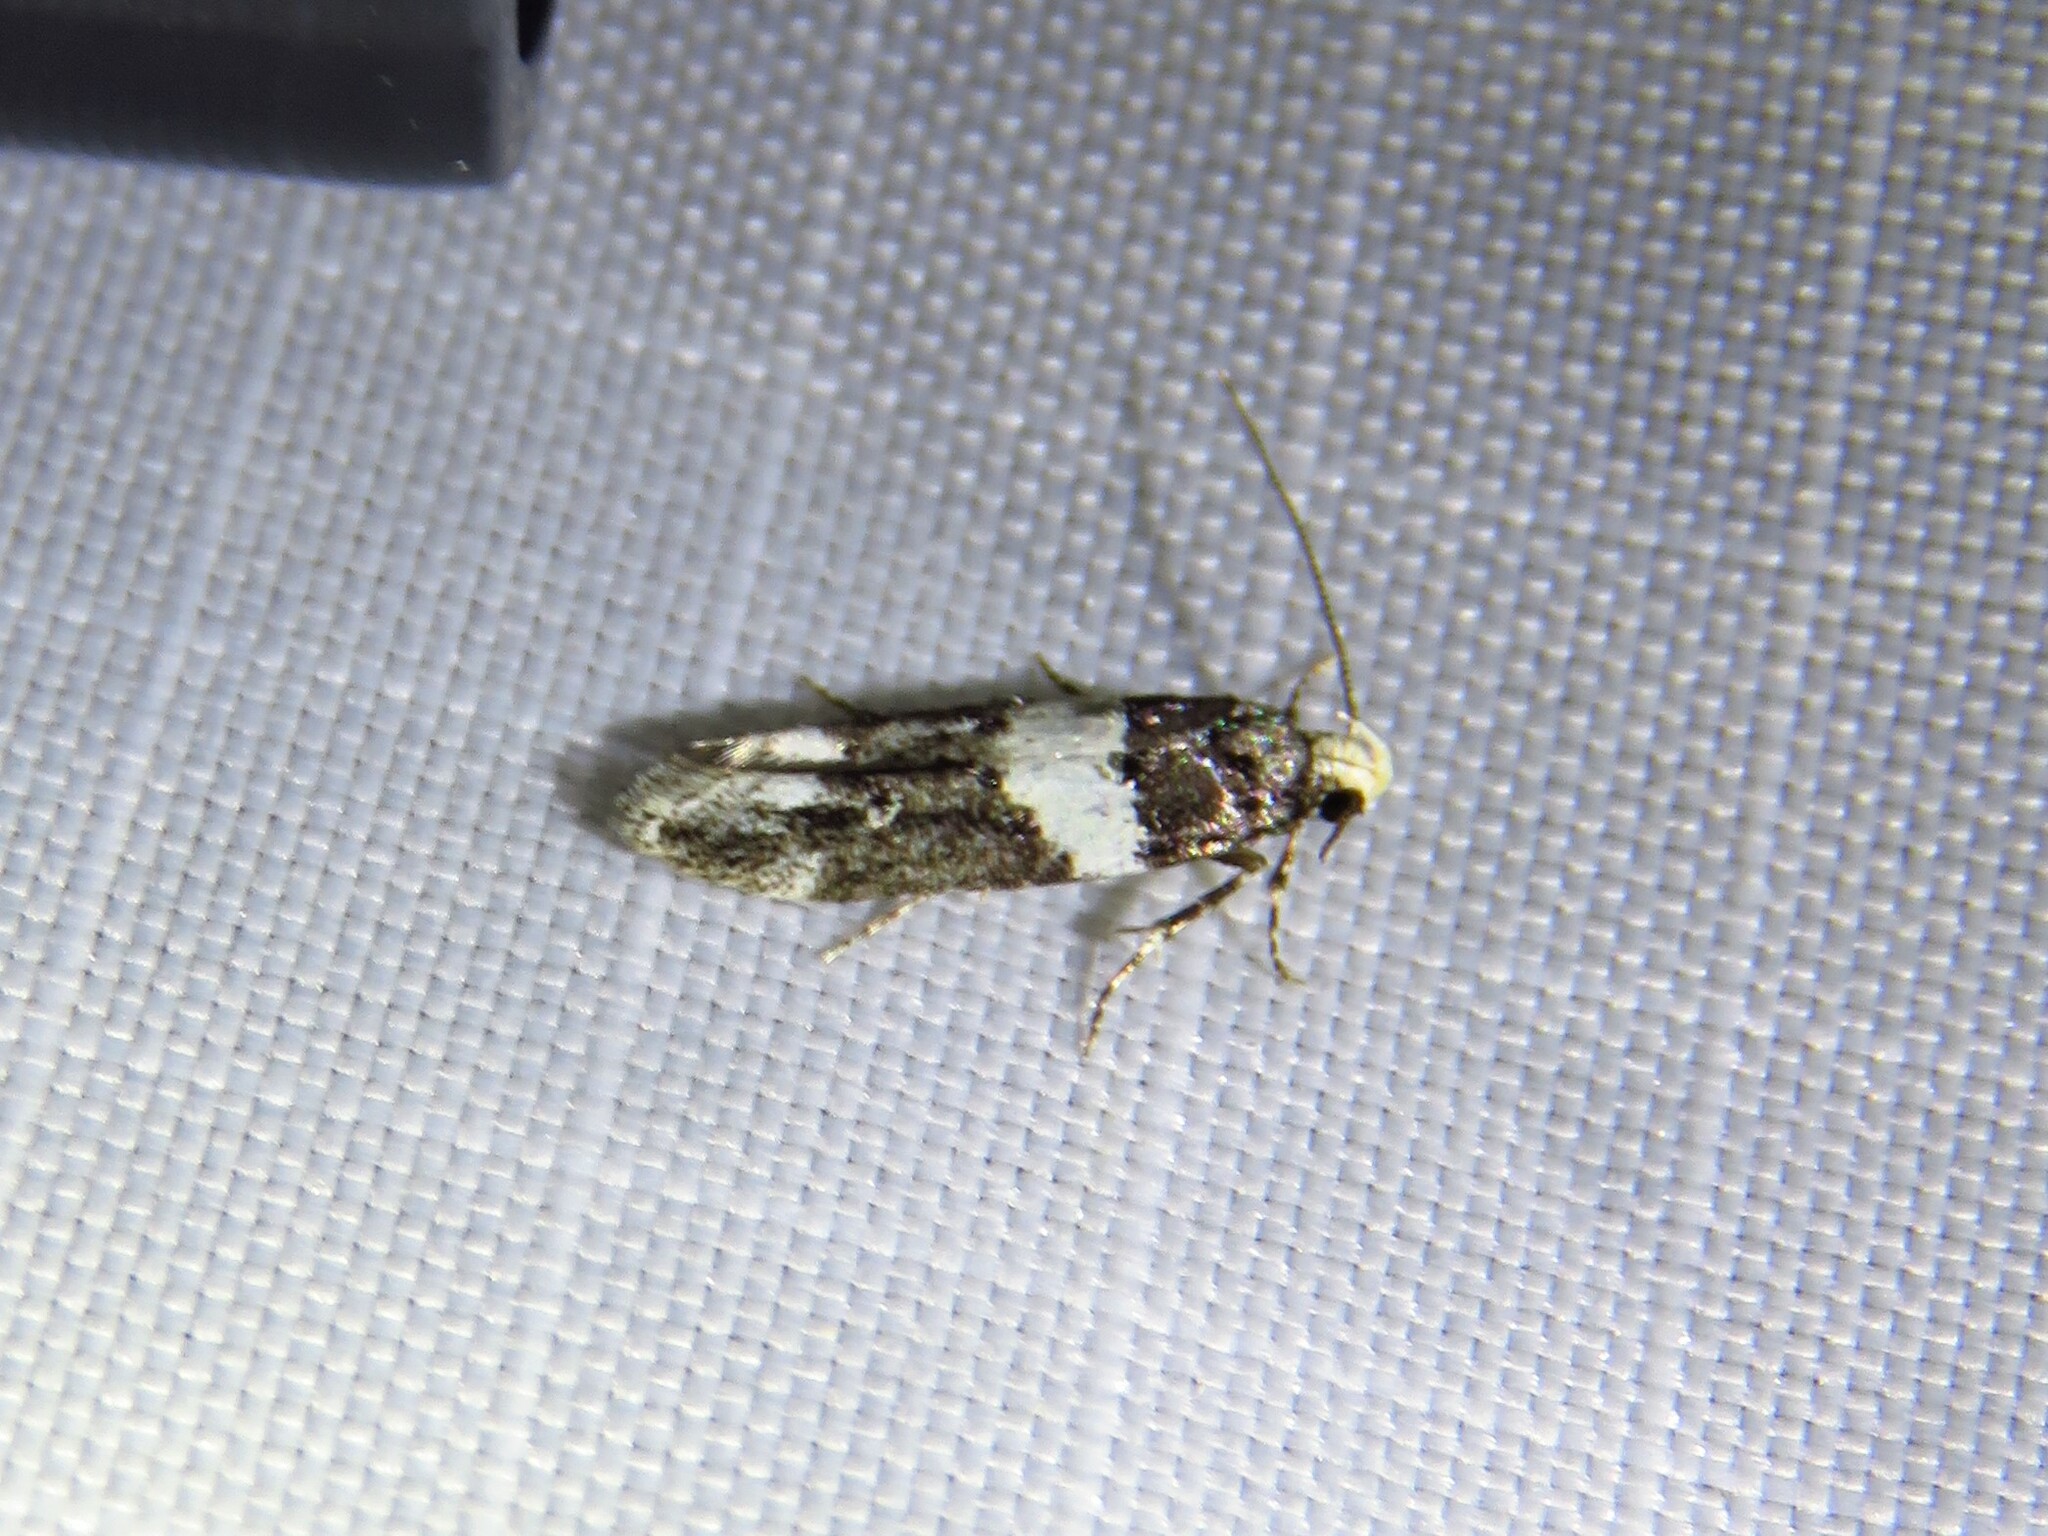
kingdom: Animalia
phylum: Arthropoda
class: Insecta
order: Lepidoptera
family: Gelechiidae
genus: Recurvaria
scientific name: Recurvaria leucatella
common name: White-barred groundling
